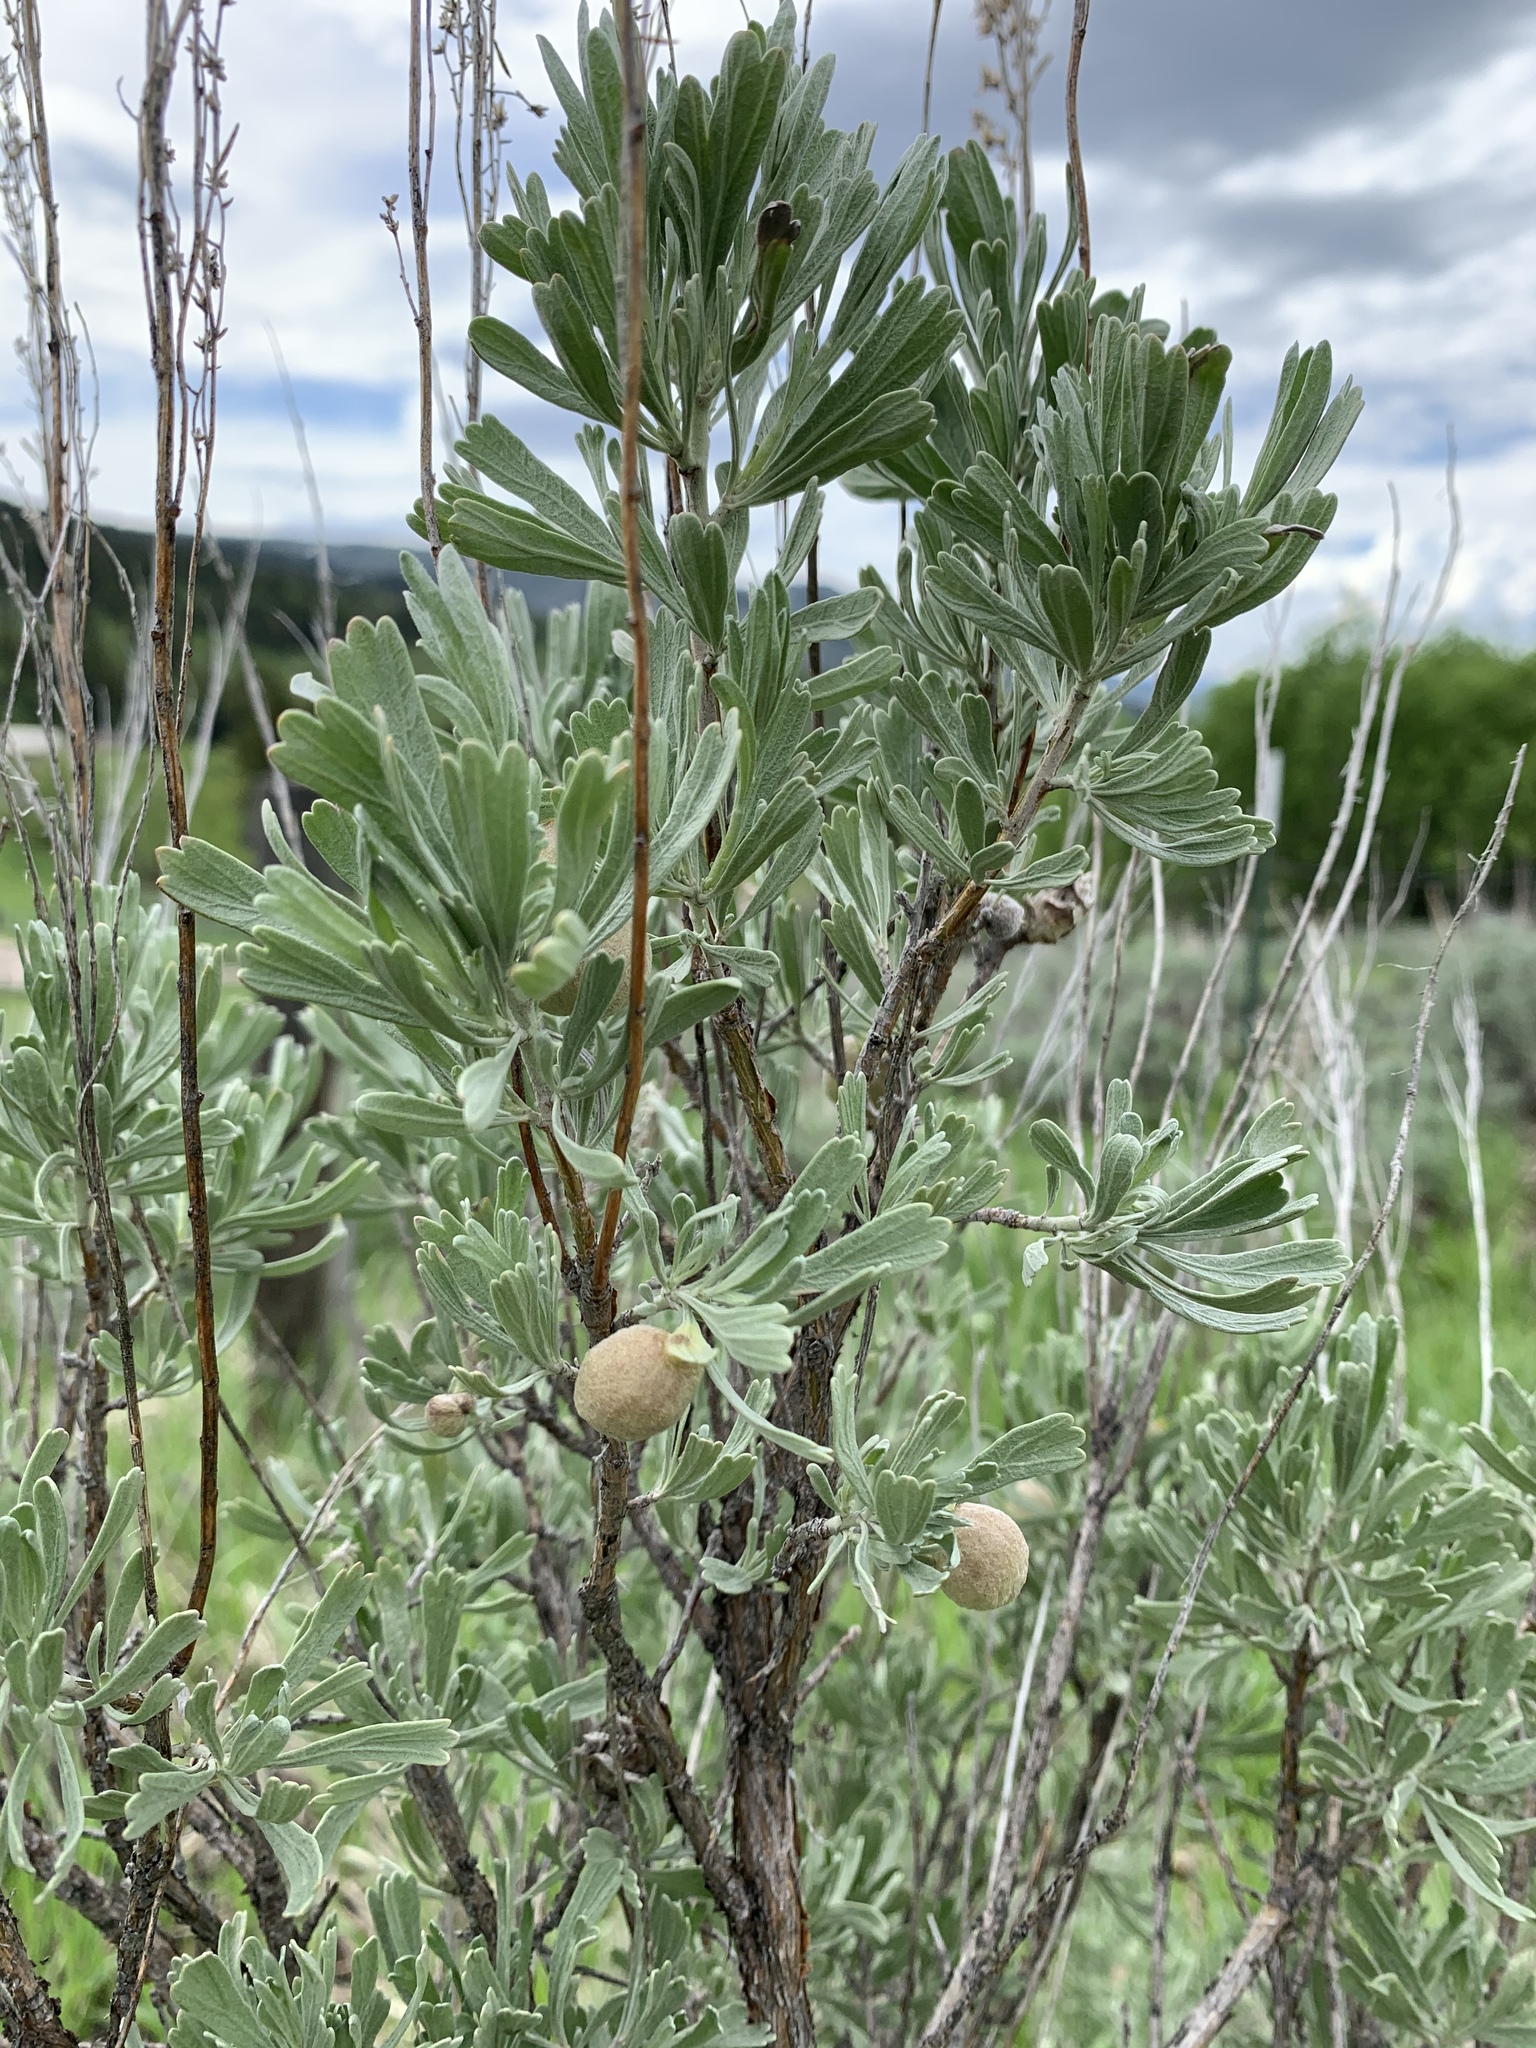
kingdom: Plantae
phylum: Tracheophyta
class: Magnoliopsida
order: Asterales
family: Asteraceae
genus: Artemisia
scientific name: Artemisia tridentata
